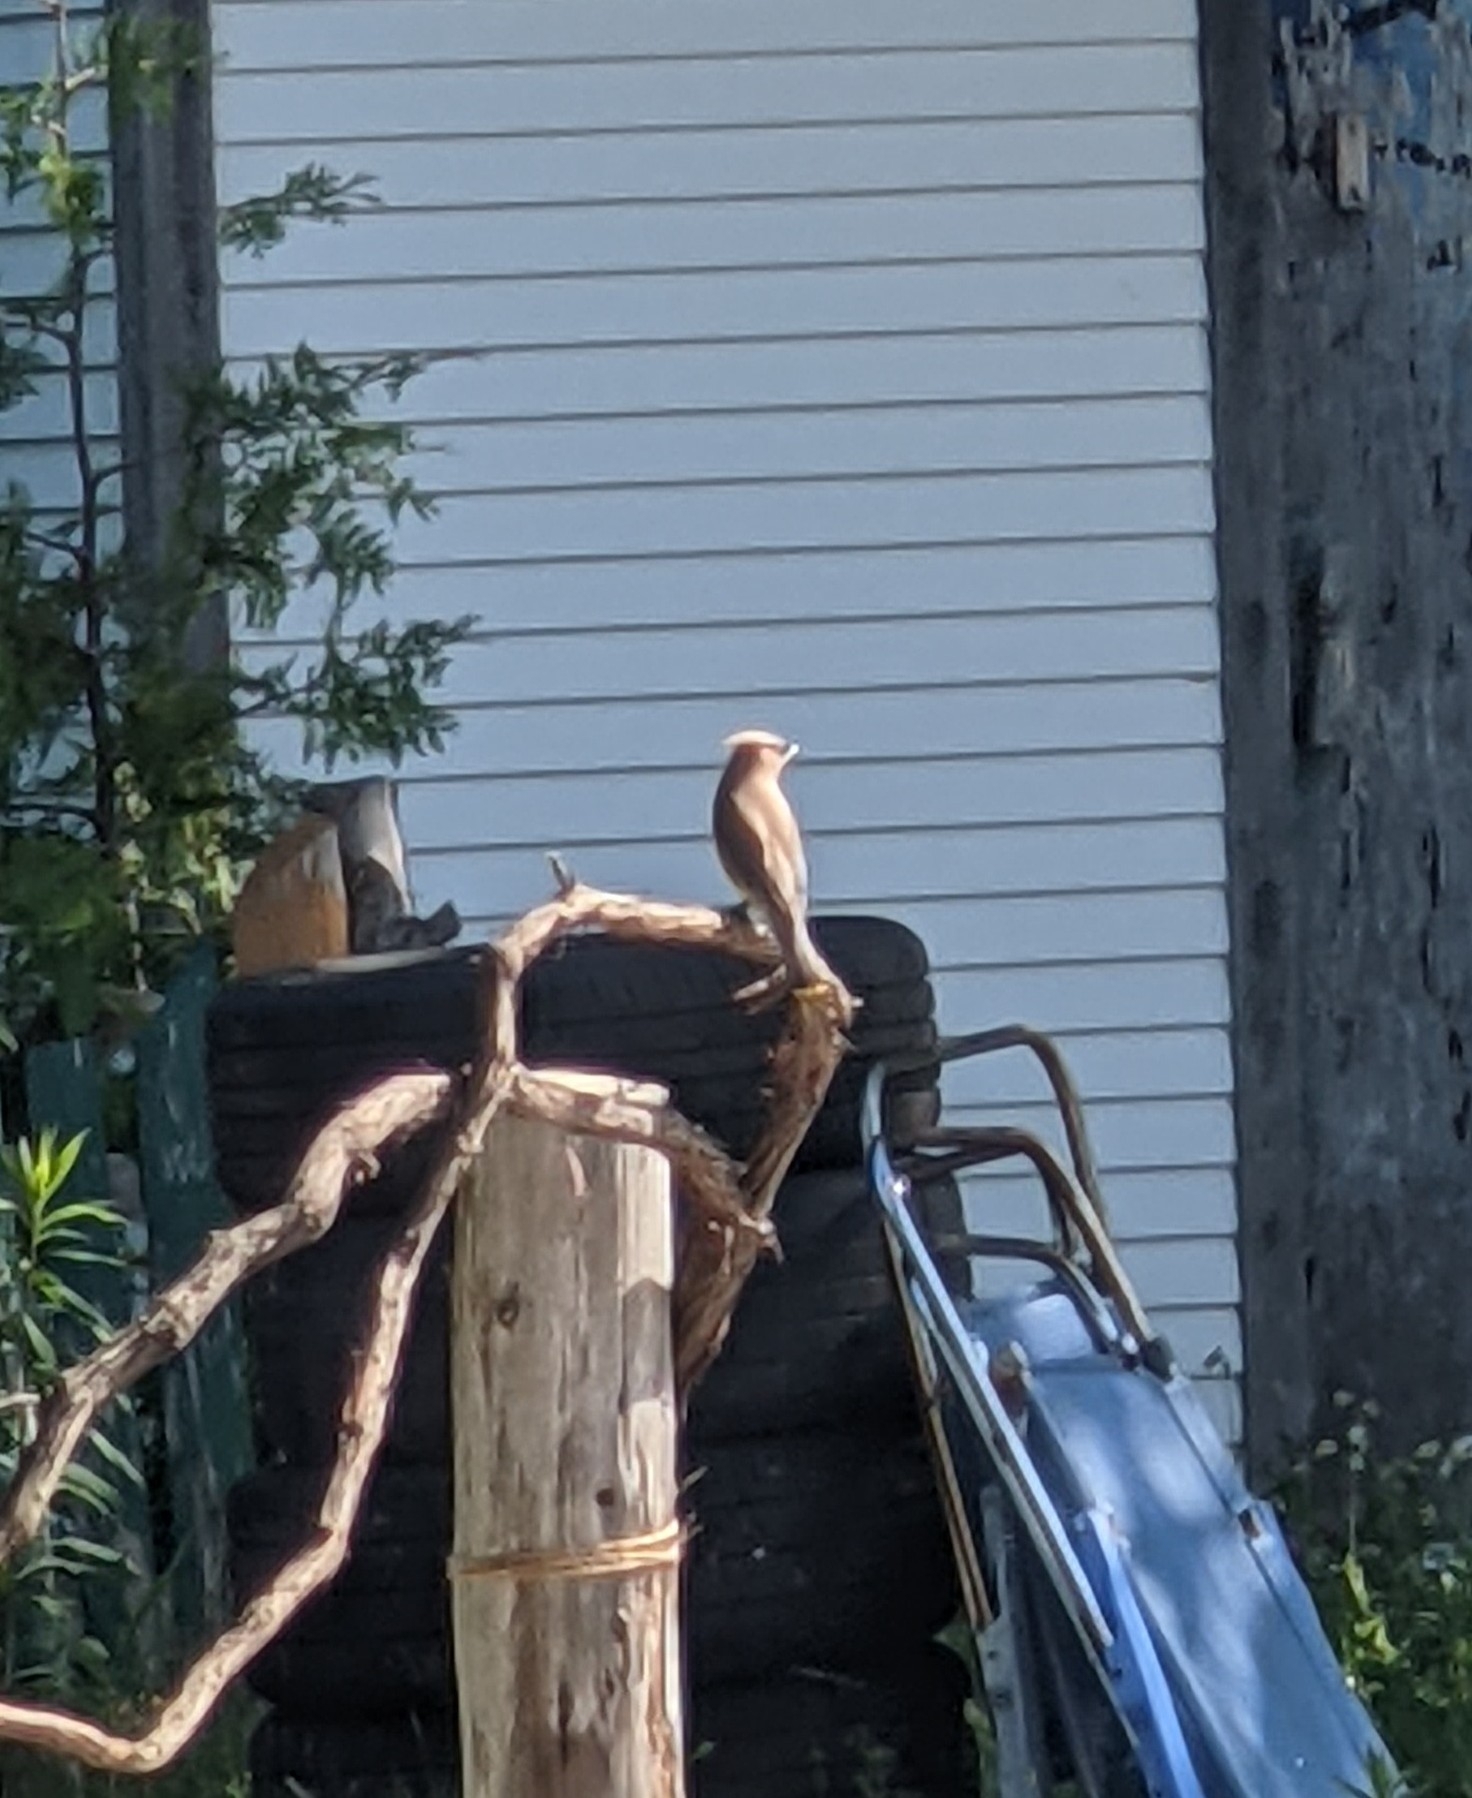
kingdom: Animalia
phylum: Chordata
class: Aves
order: Passeriformes
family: Bombycillidae
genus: Bombycilla
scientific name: Bombycilla cedrorum
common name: Cedar waxwing
